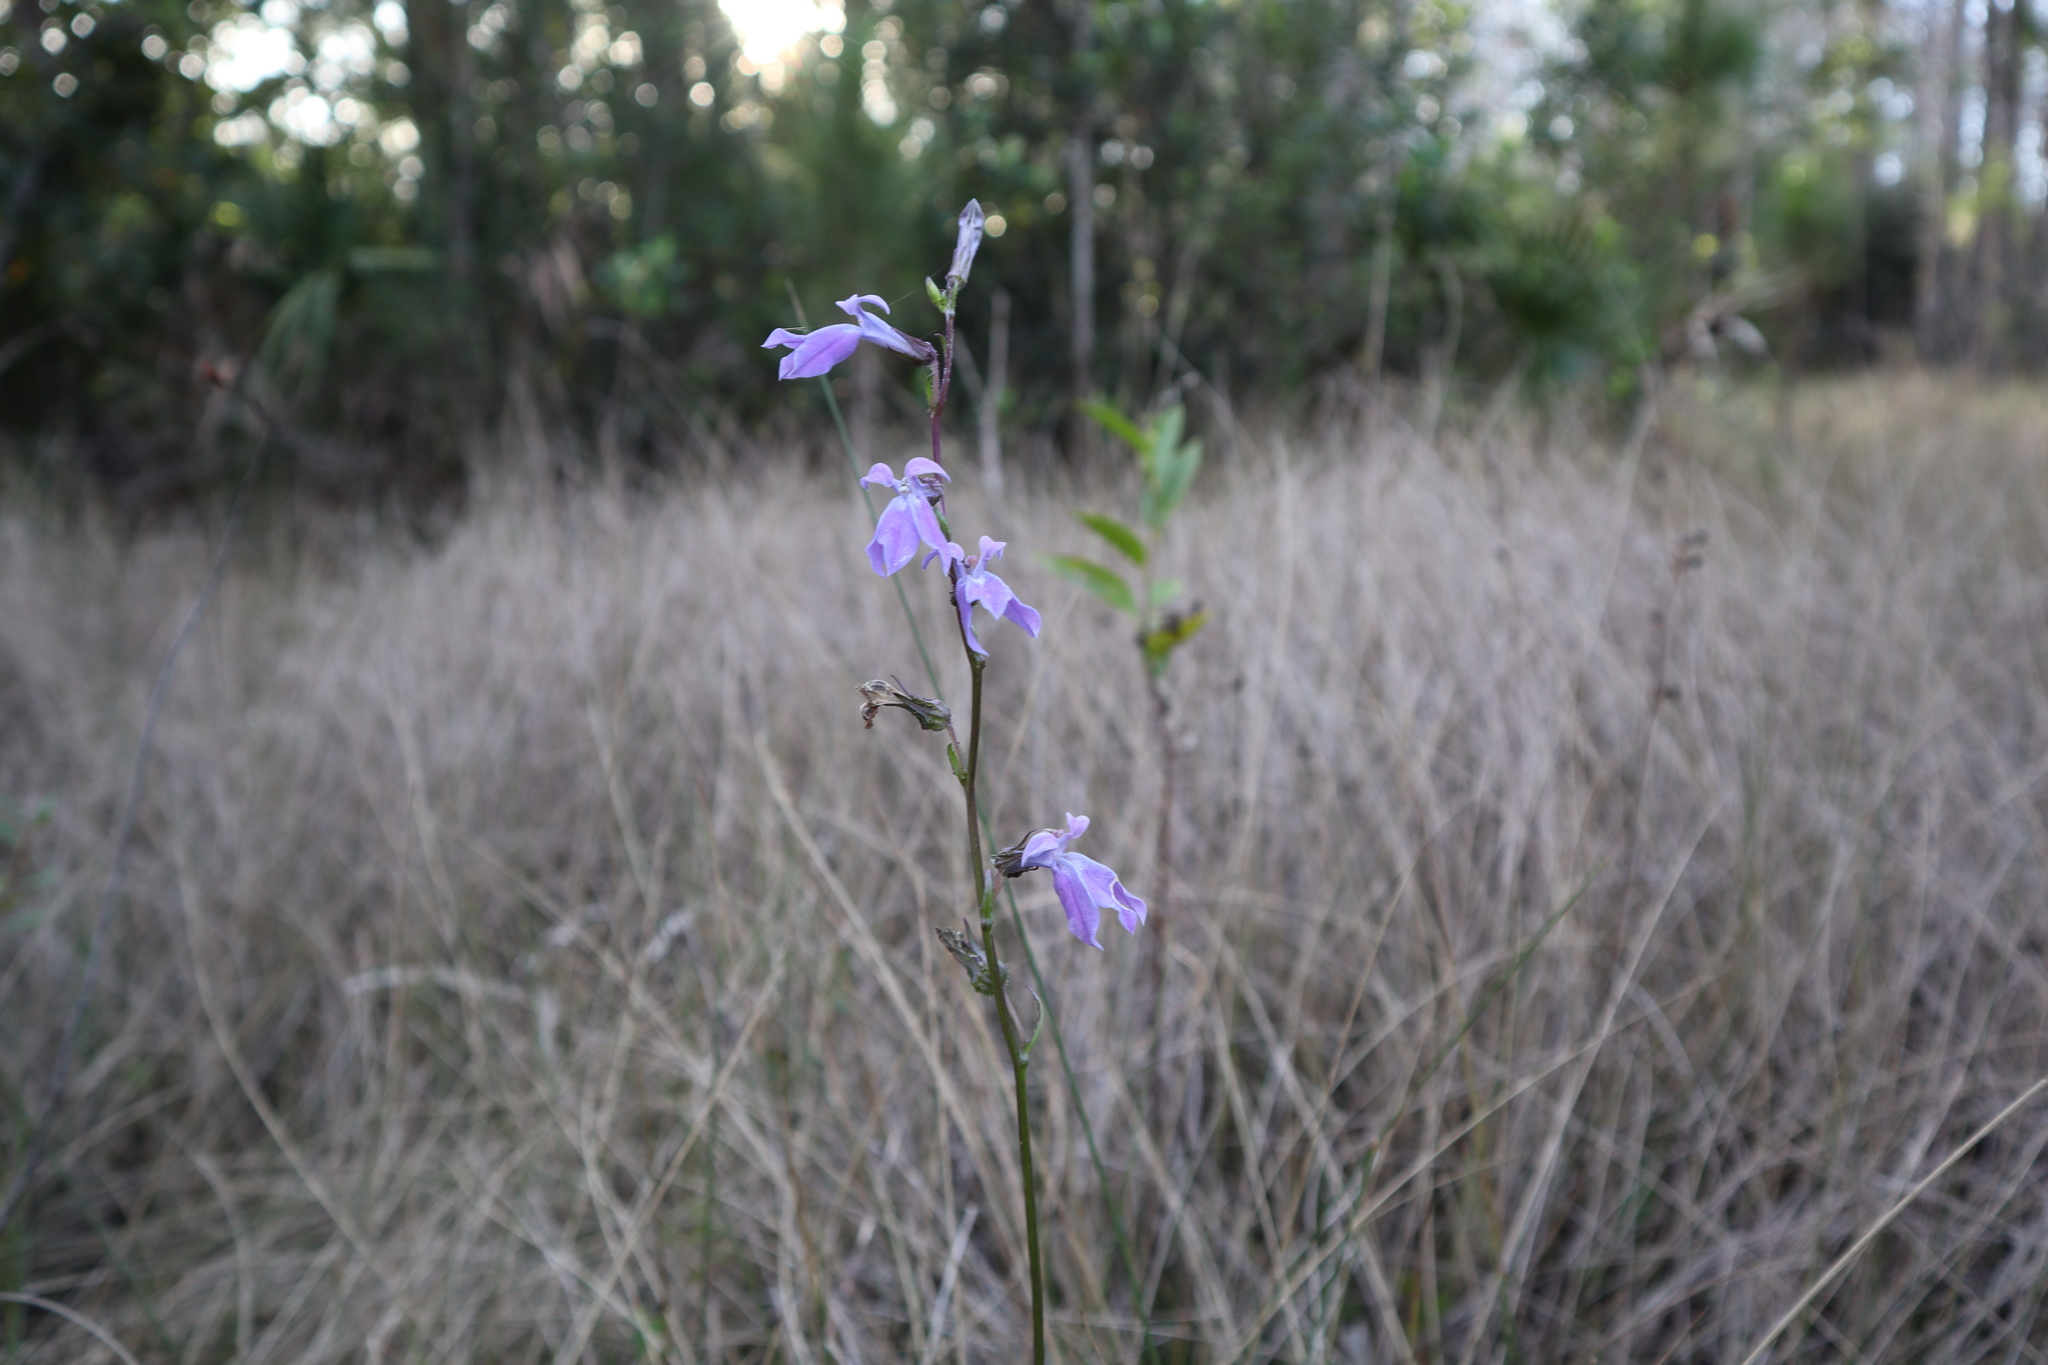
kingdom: Plantae
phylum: Tracheophyta
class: Magnoliopsida
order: Asterales
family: Campanulaceae
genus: Lobelia
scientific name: Lobelia glandulosa
